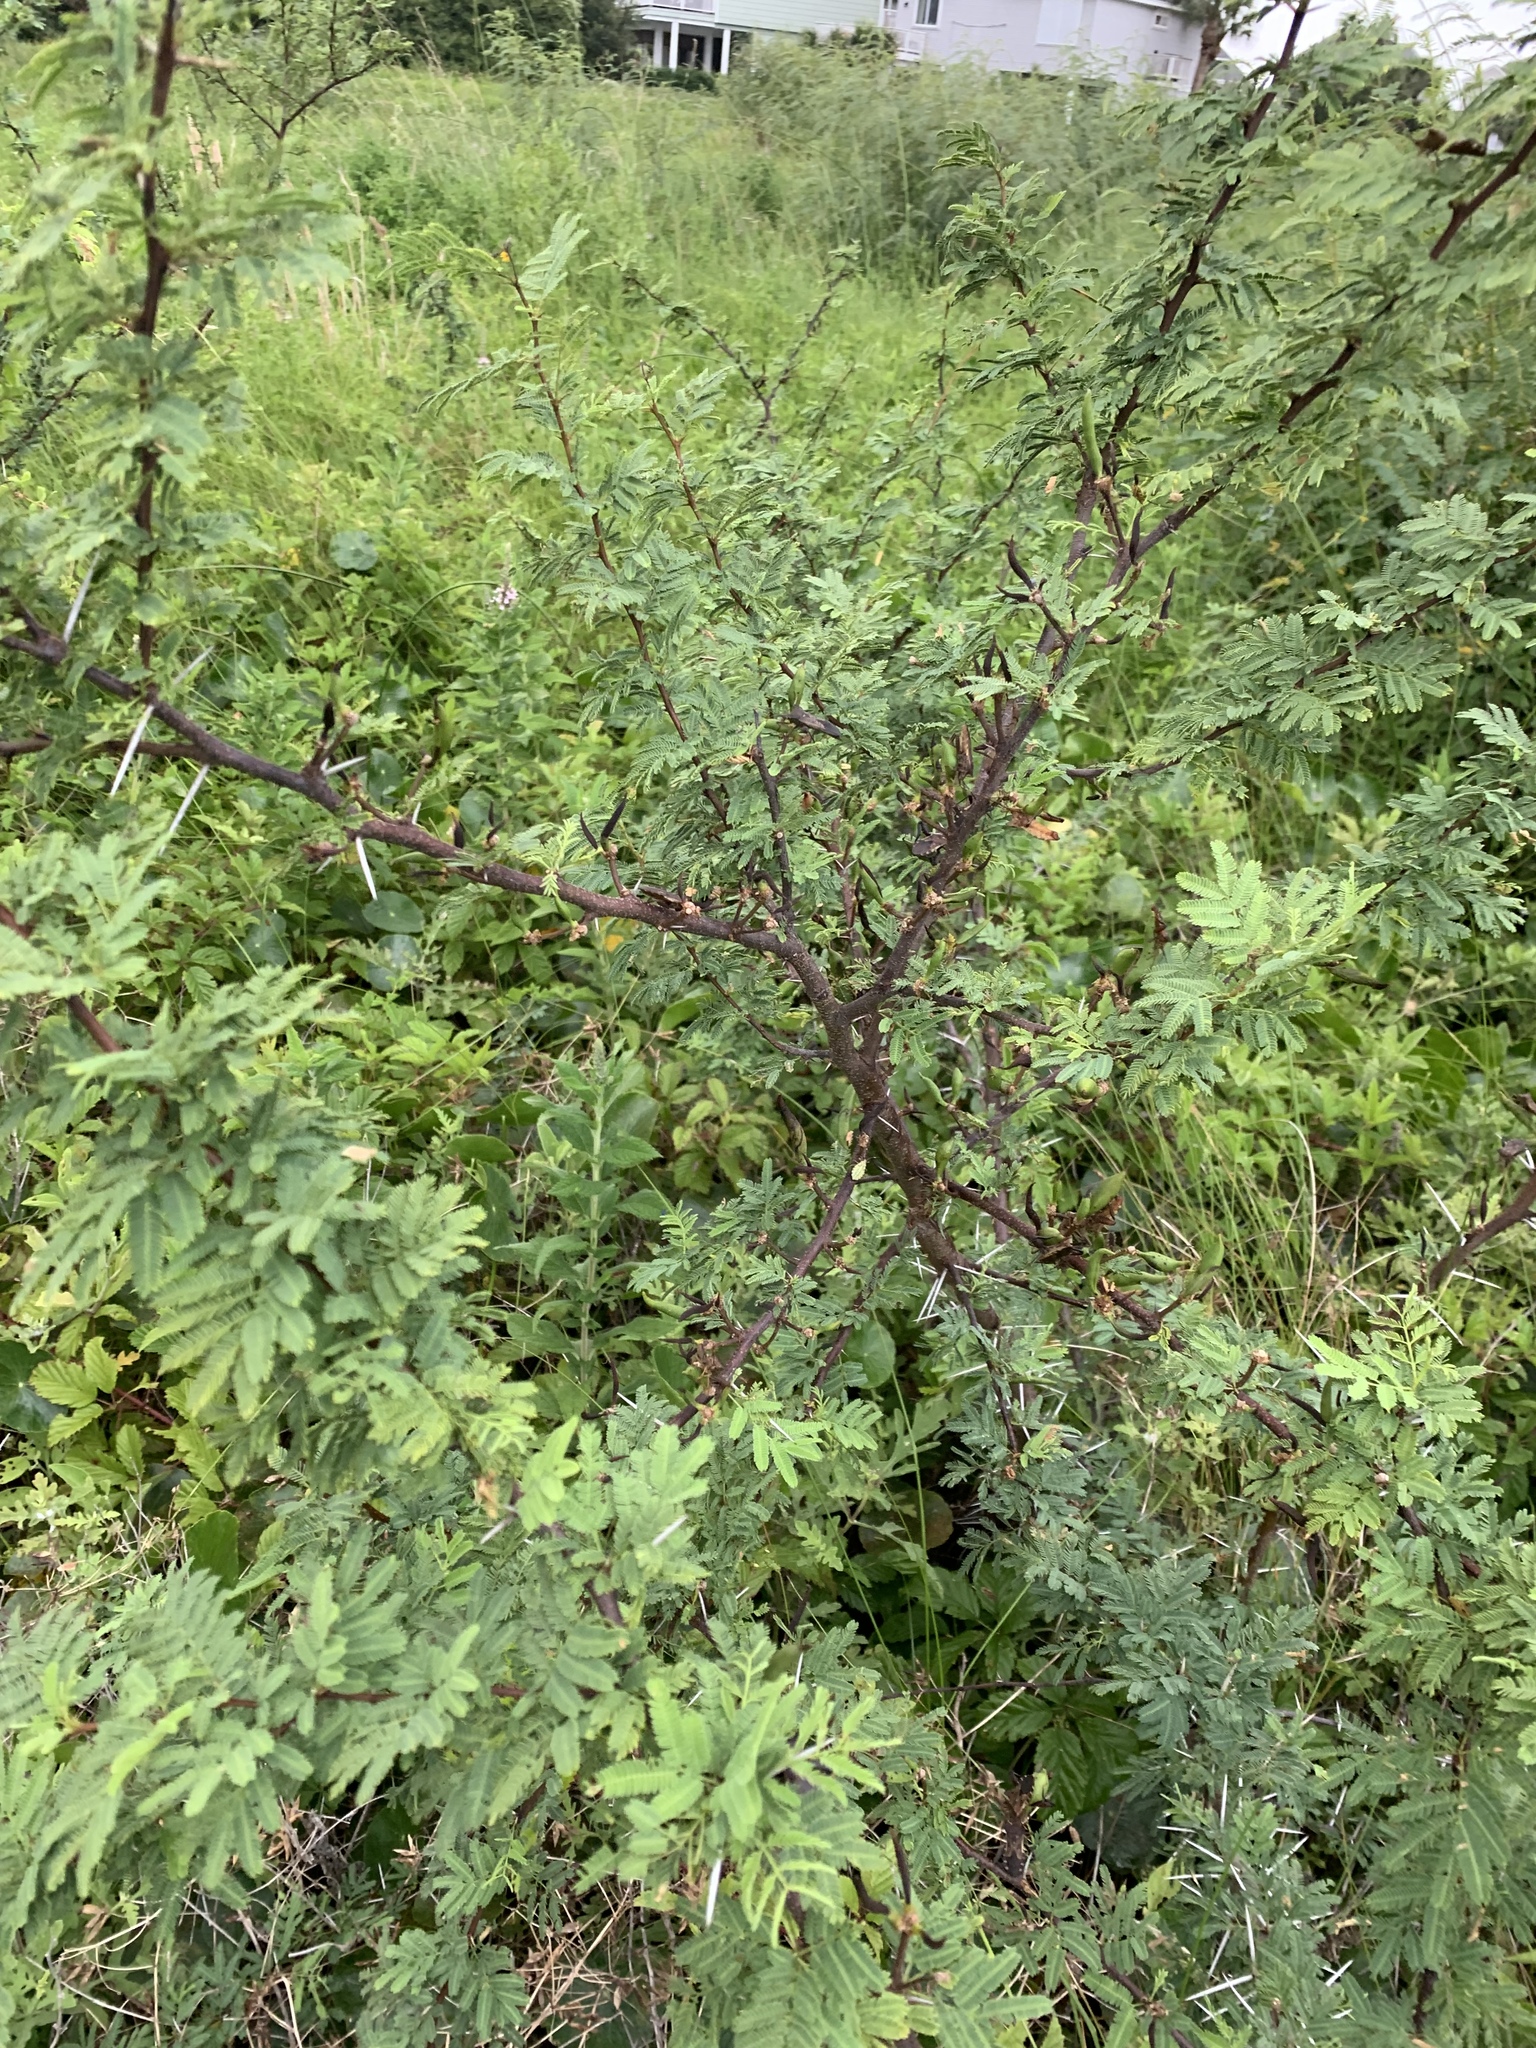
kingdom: Plantae
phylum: Tracheophyta
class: Magnoliopsida
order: Fabales
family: Fabaceae
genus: Vachellia
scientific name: Vachellia farnesiana
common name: Sweet acacia
